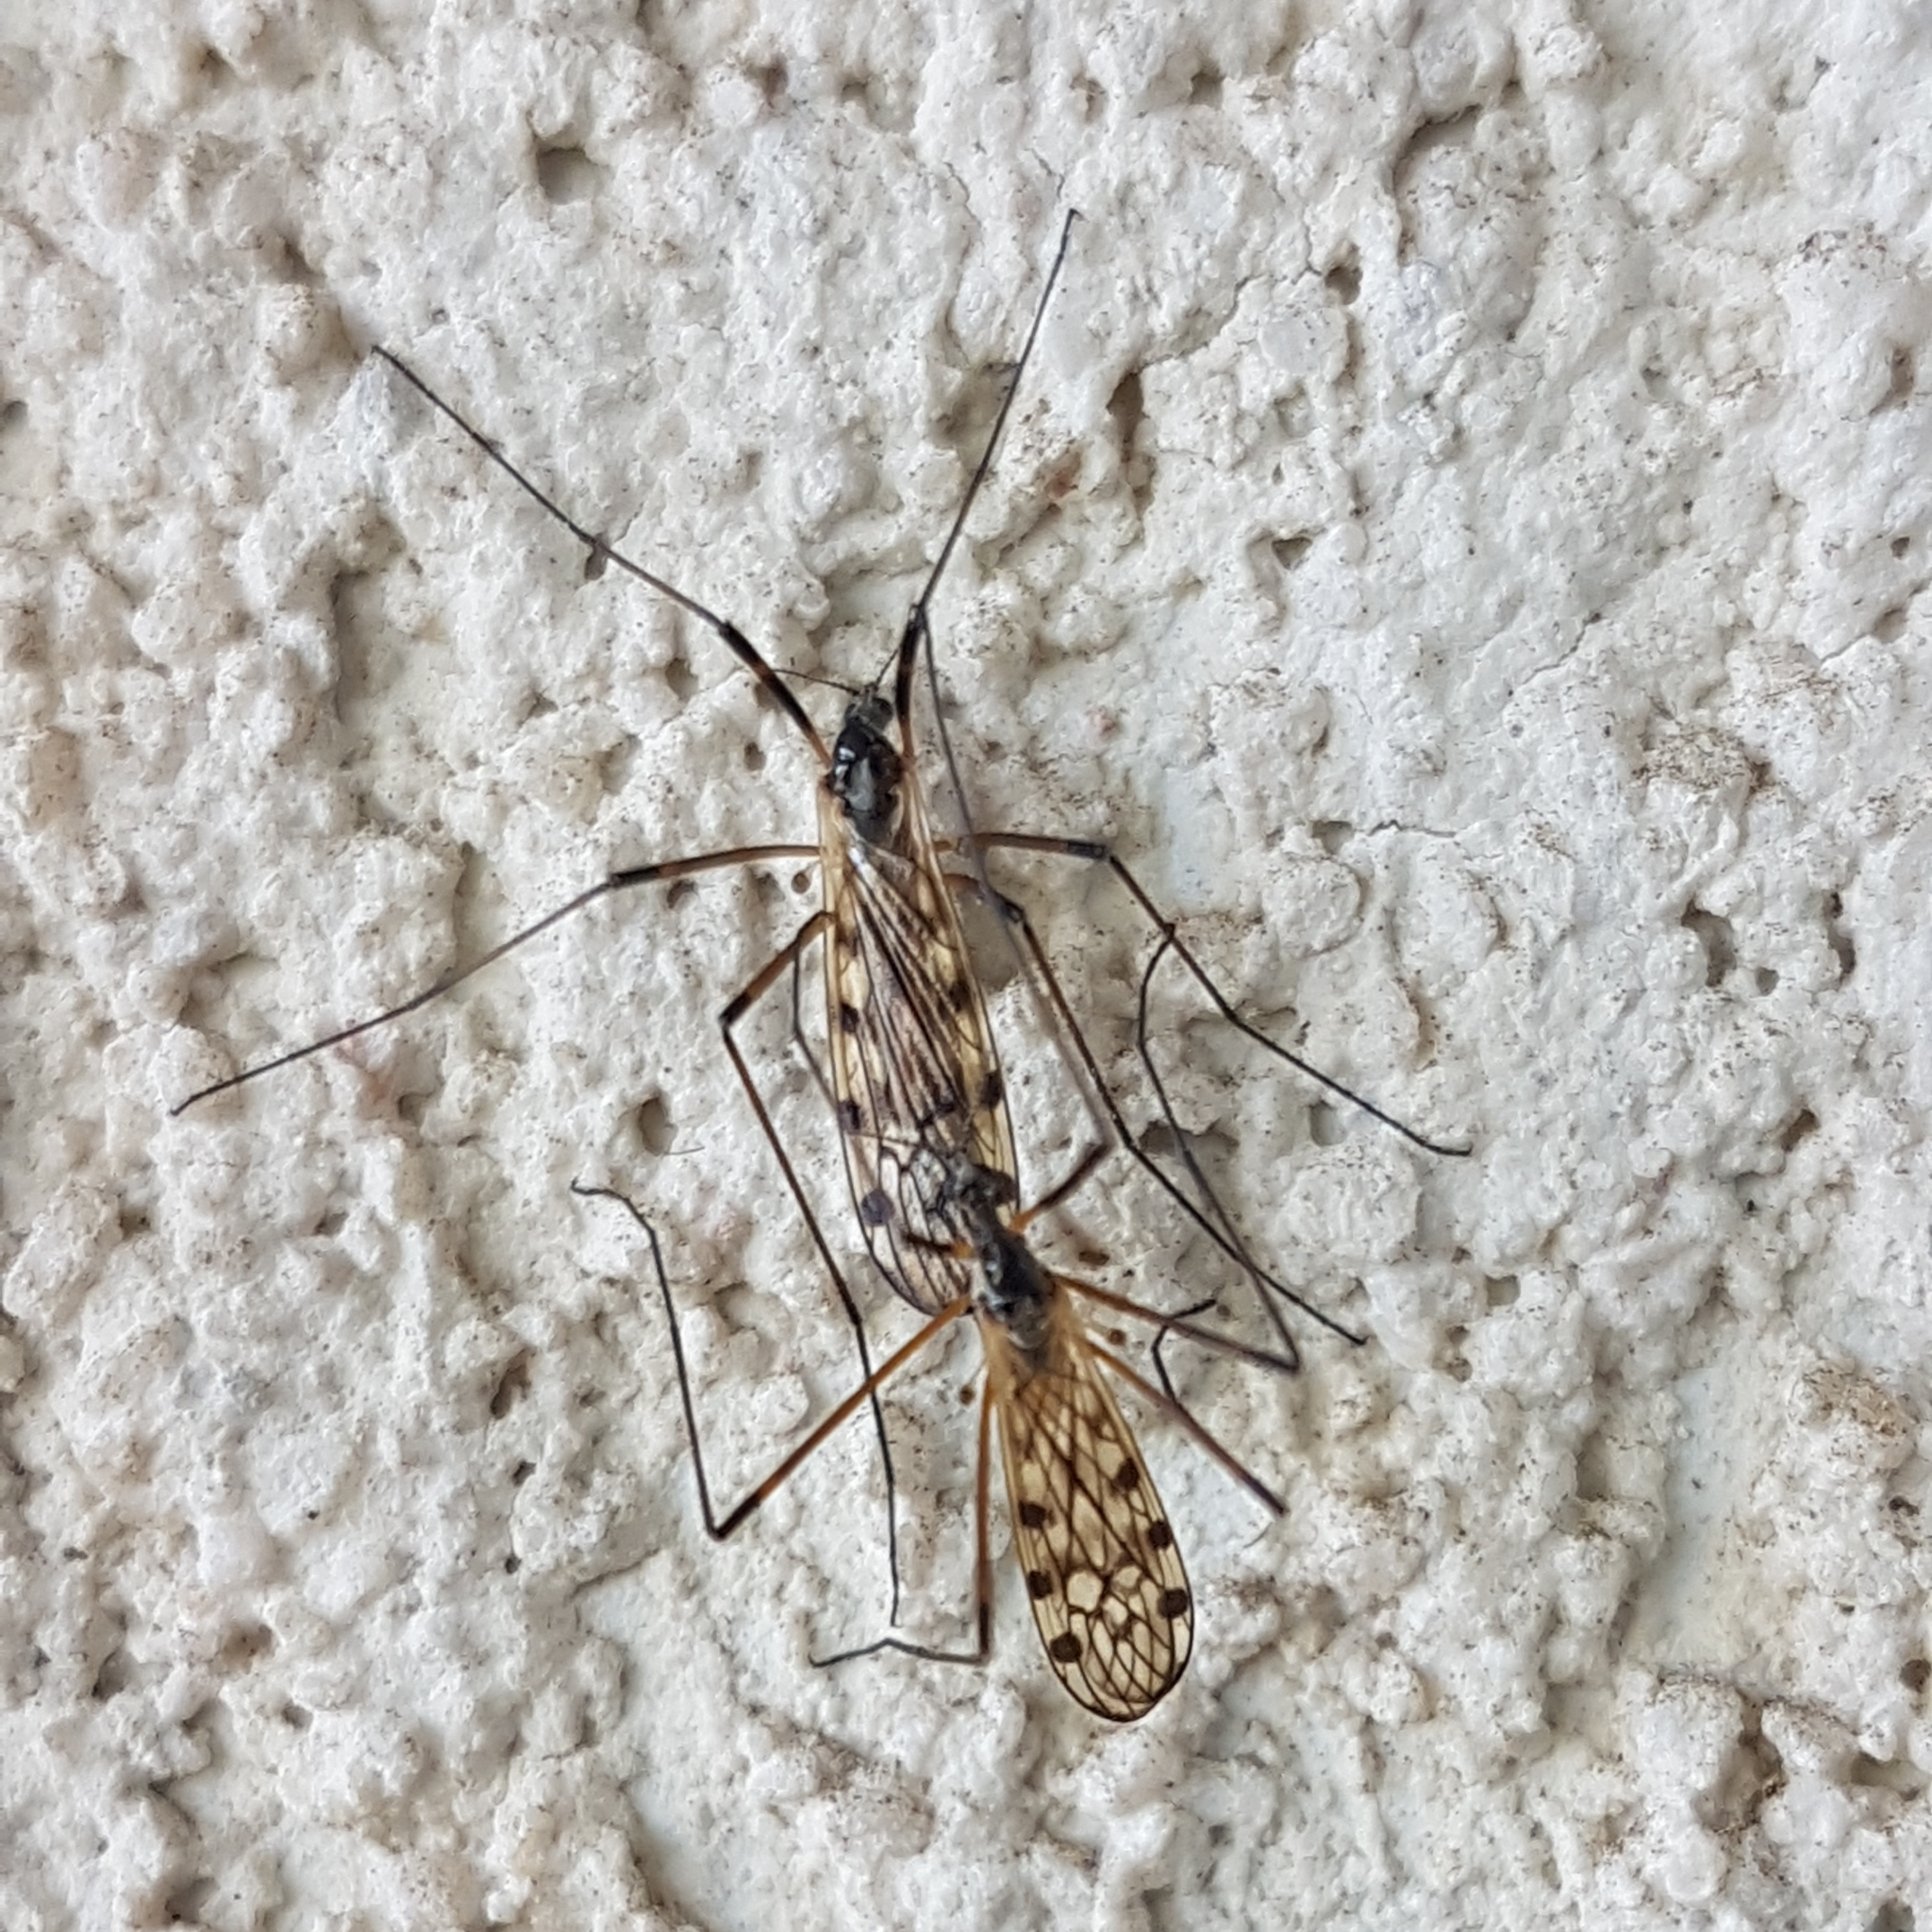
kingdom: Animalia
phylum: Arthropoda
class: Insecta
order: Diptera
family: Limoniidae
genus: Limonia
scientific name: Limonia maculipennis
